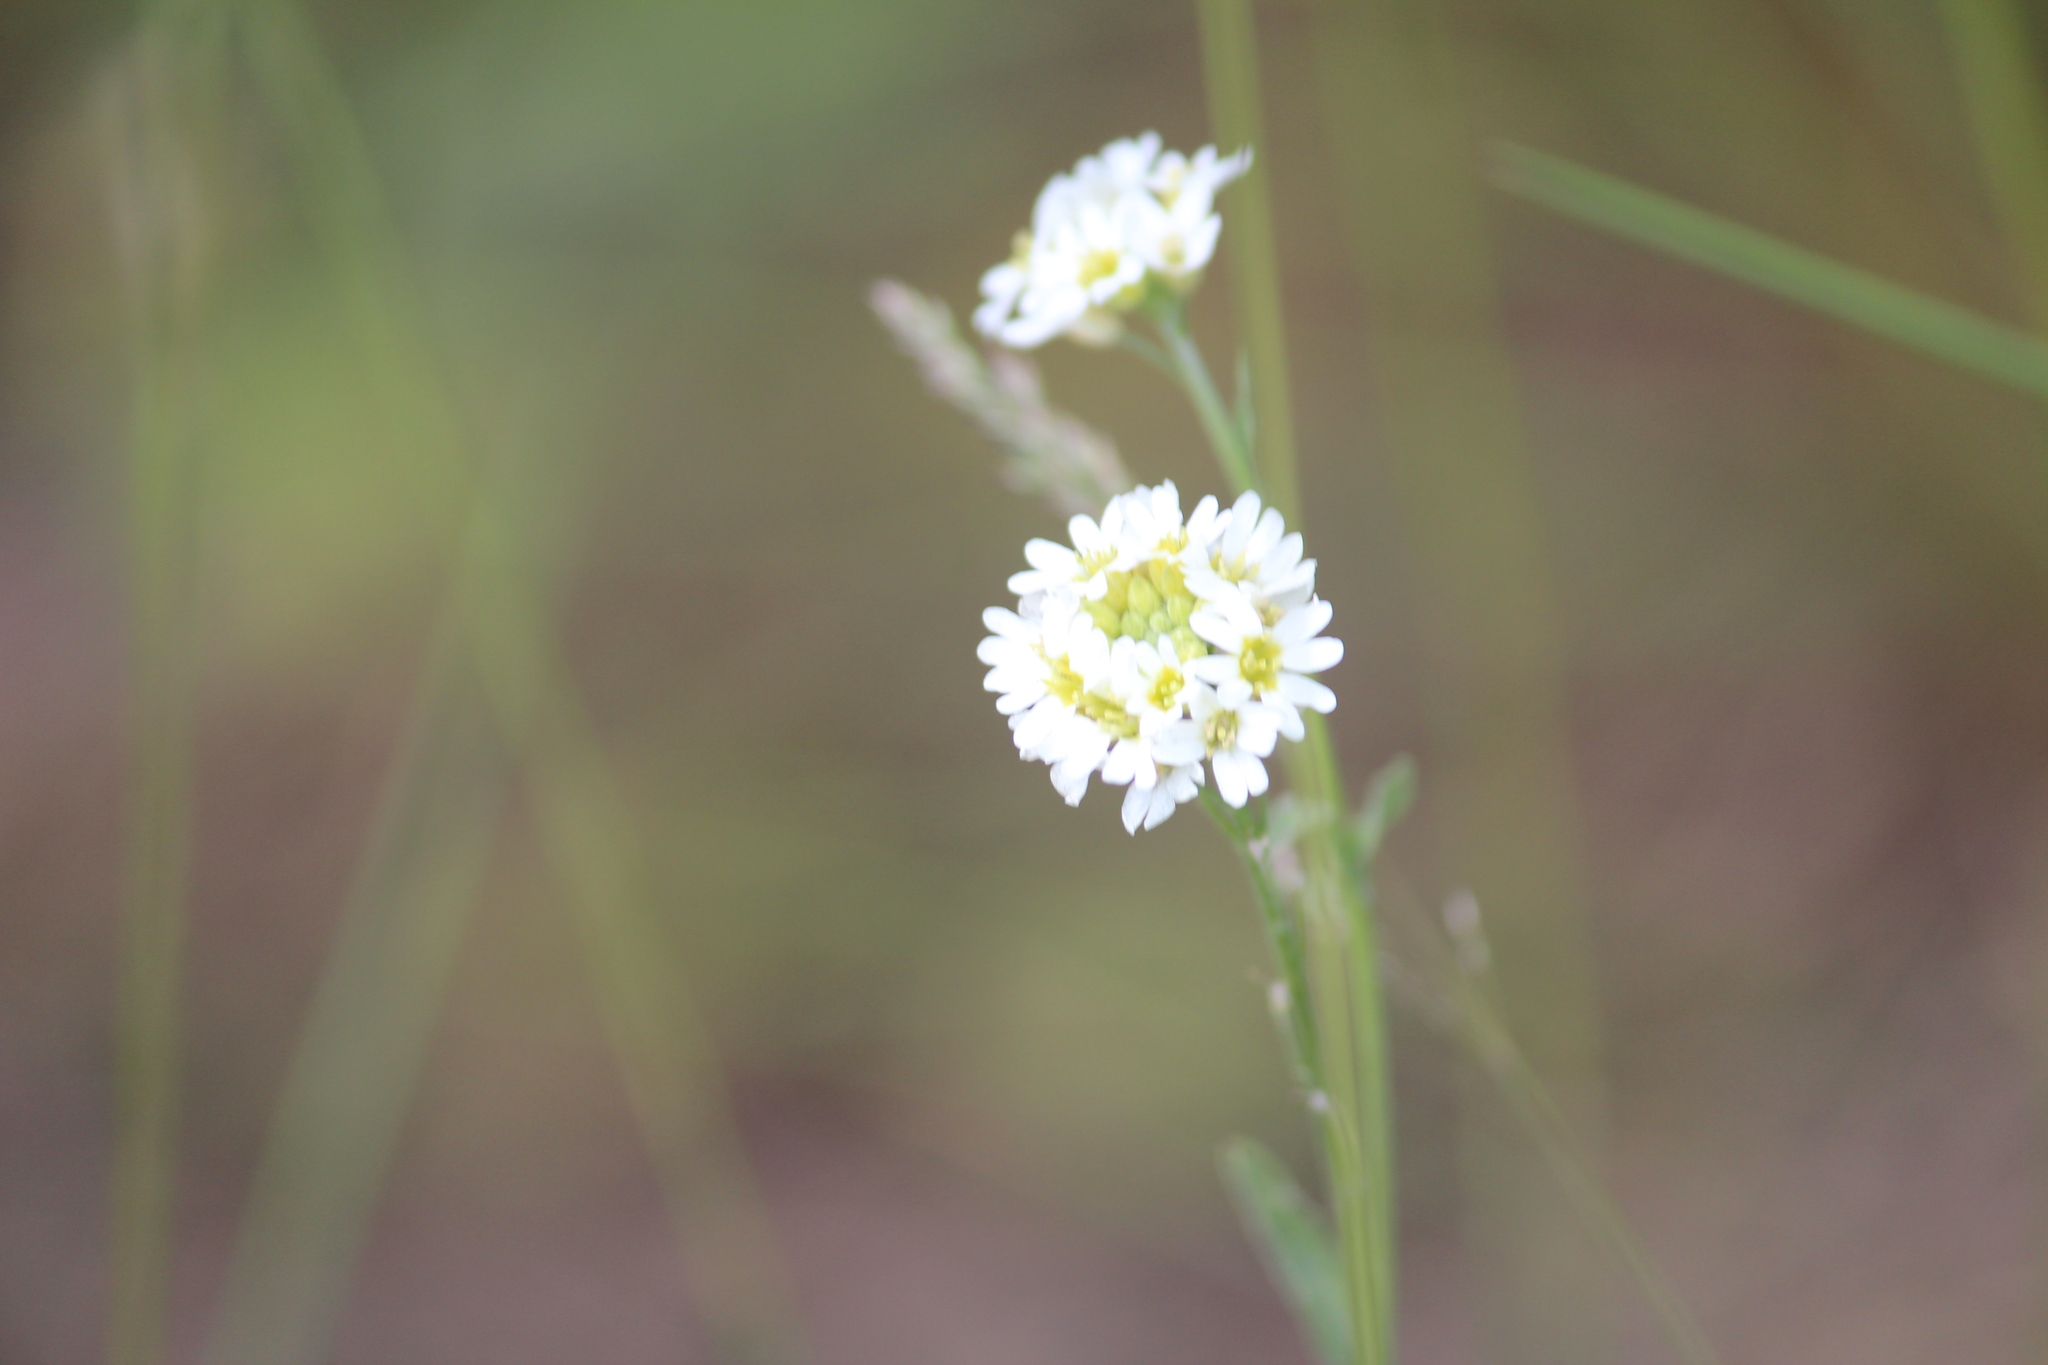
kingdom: Plantae
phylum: Tracheophyta
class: Magnoliopsida
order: Brassicales
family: Brassicaceae
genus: Berteroa
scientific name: Berteroa incana
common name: Hoary alison
